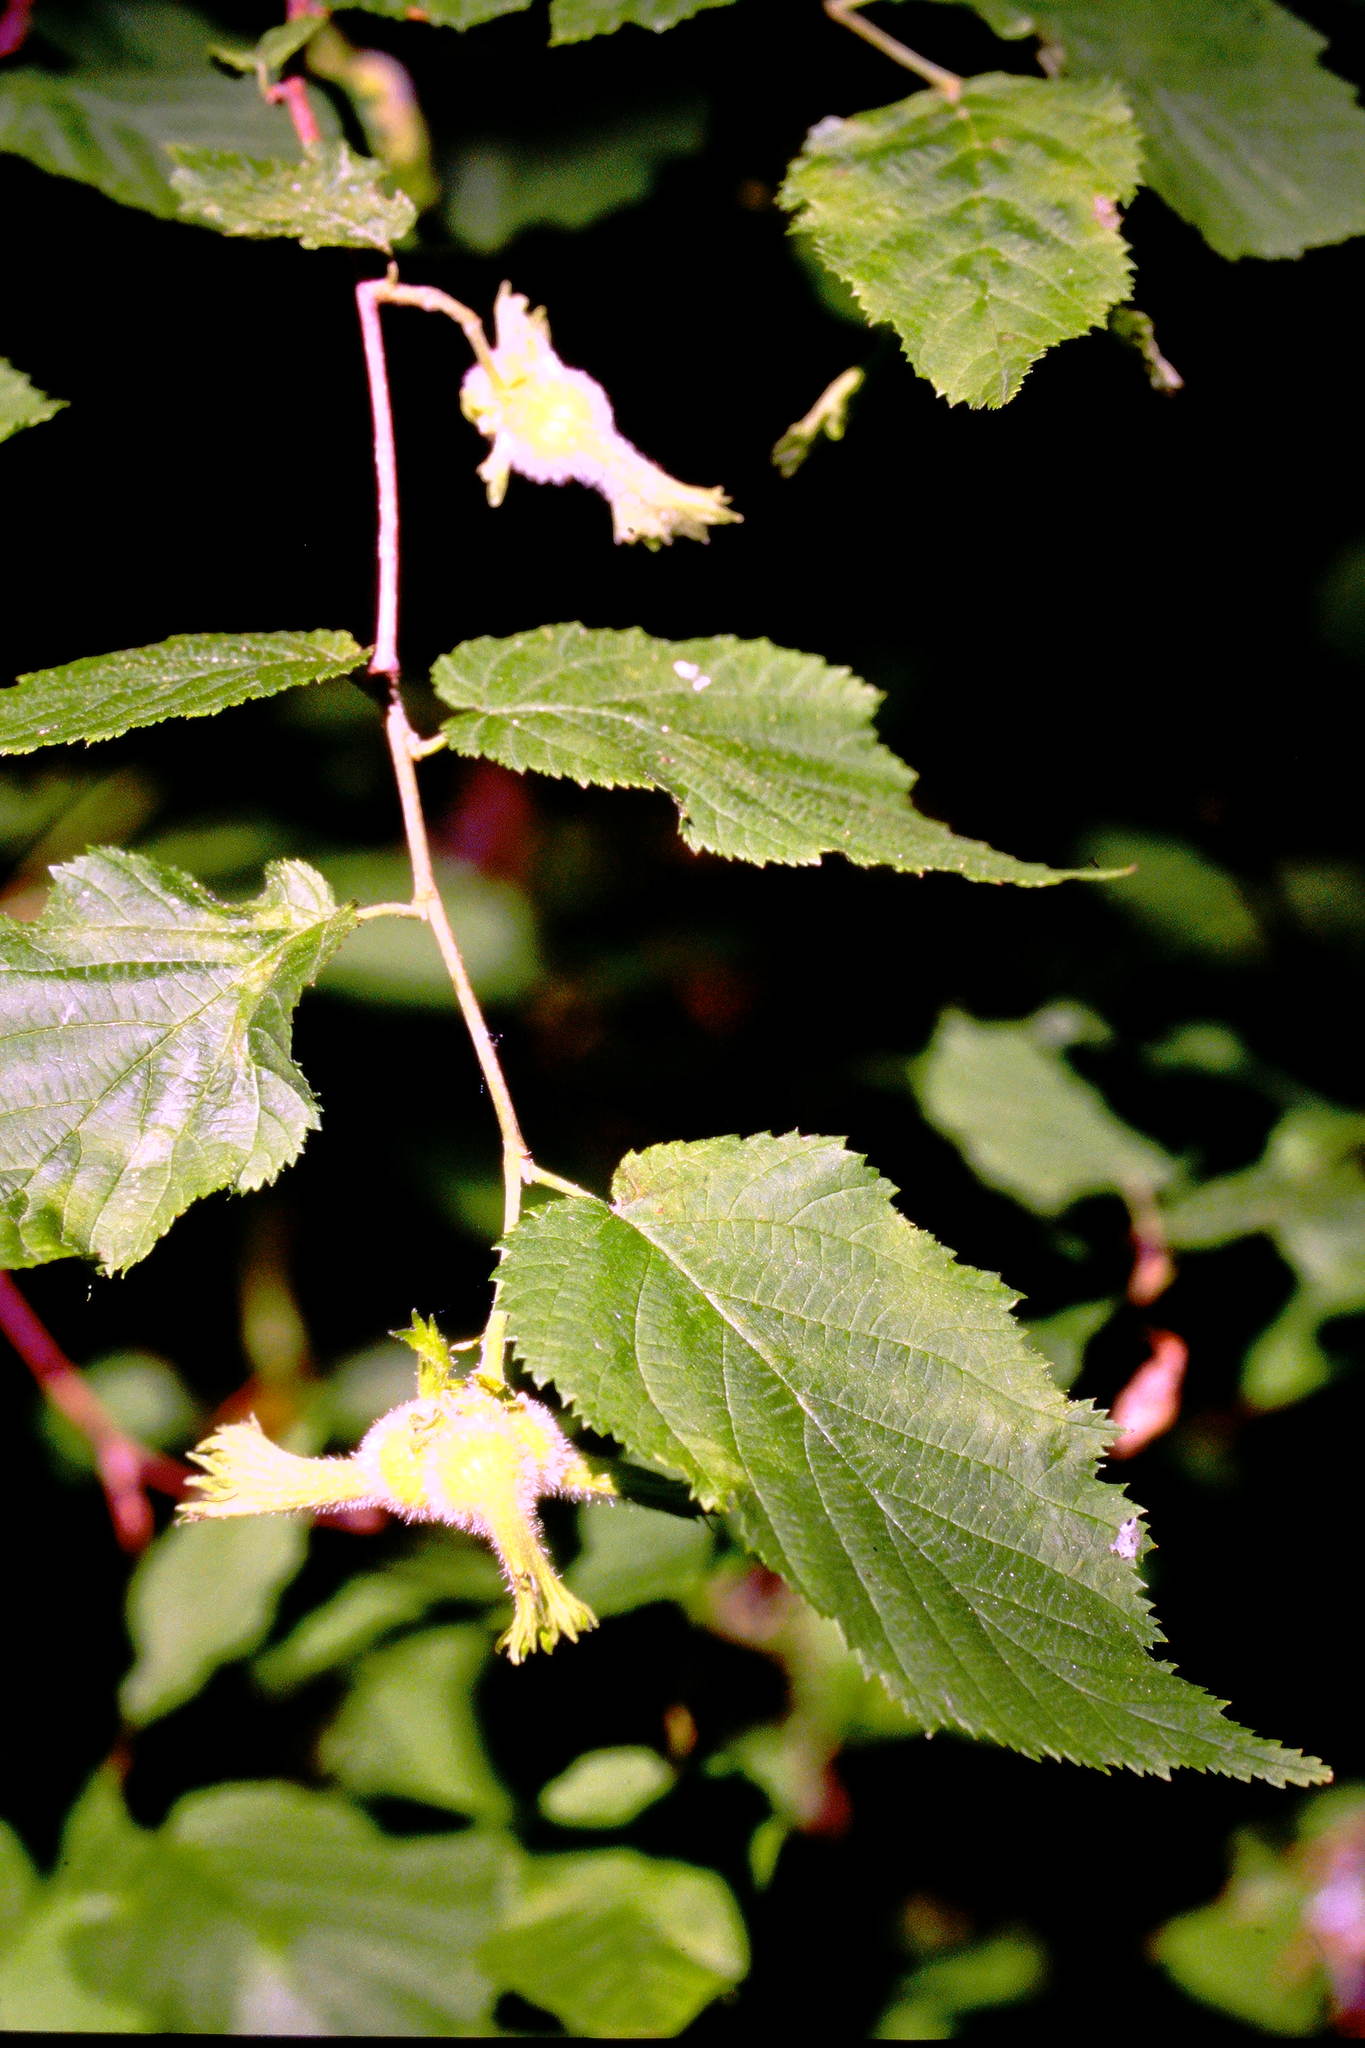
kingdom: Plantae
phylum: Tracheophyta
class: Magnoliopsida
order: Fagales
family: Betulaceae
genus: Corylus
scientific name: Corylus cornuta
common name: Beaked hazel
